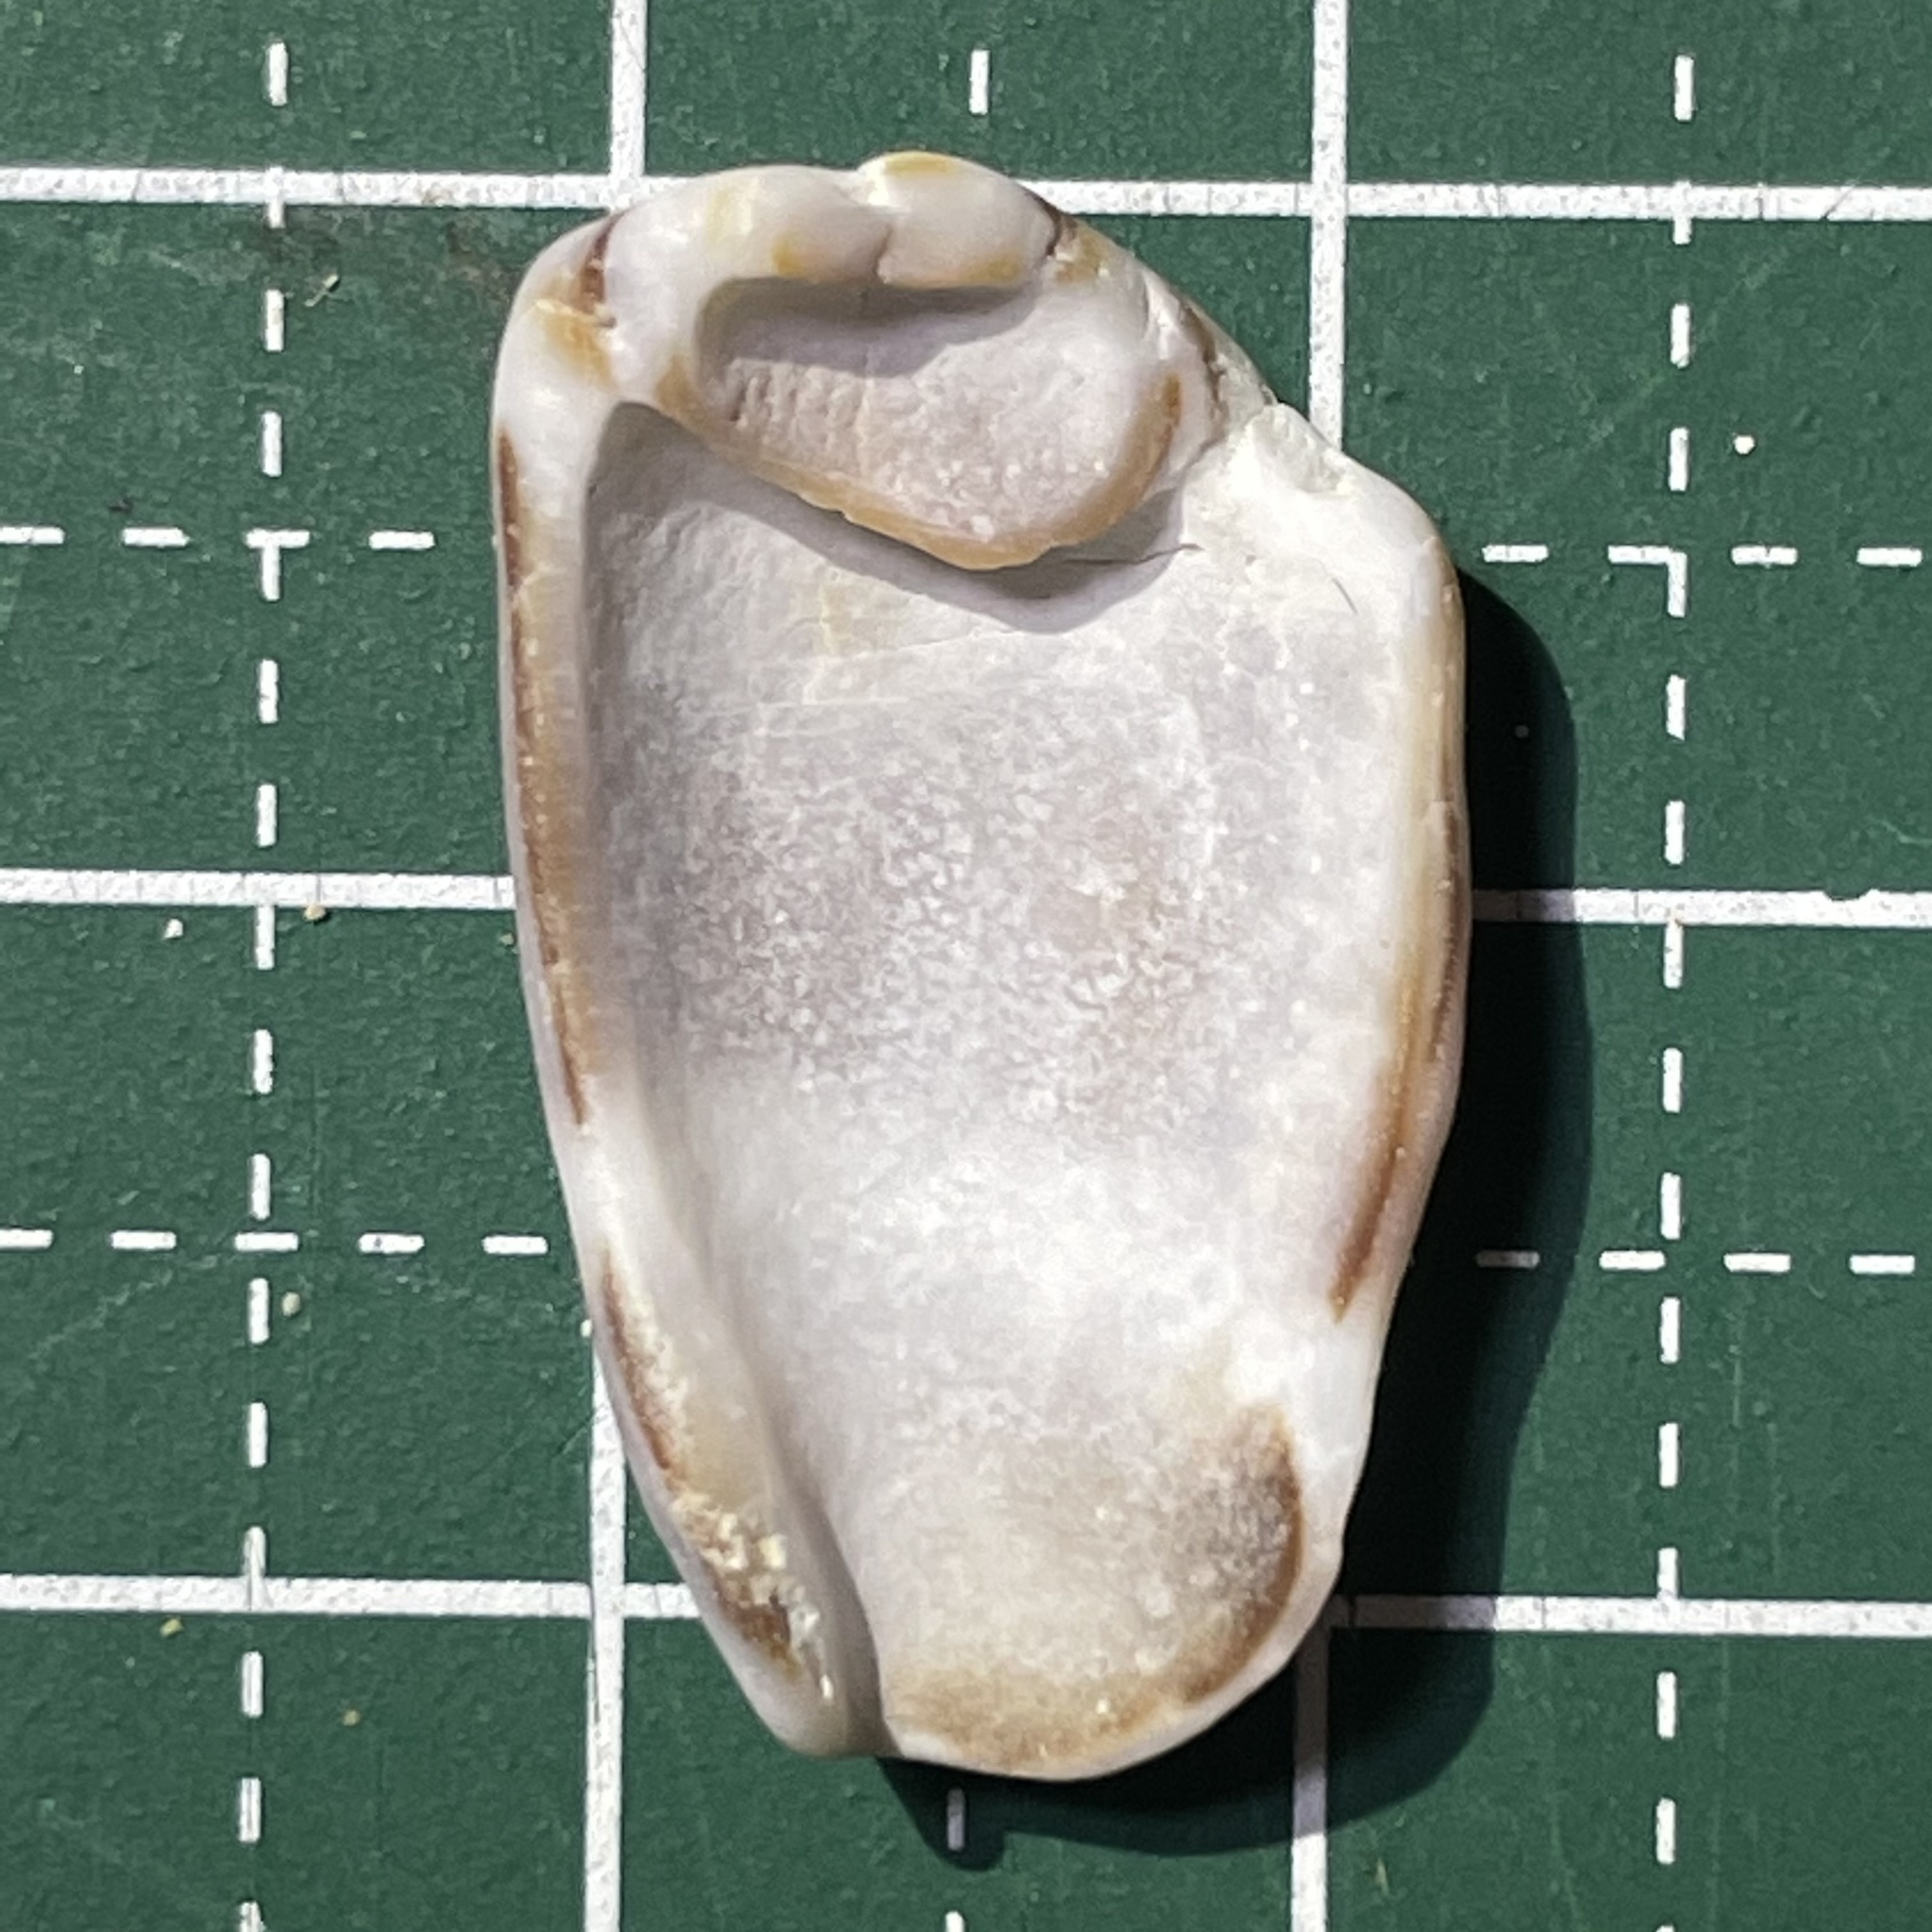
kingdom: Animalia
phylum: Mollusca
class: Gastropoda
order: Neogastropoda
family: Conidae
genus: Conus
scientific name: Conus coronatus
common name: Coronated cone
